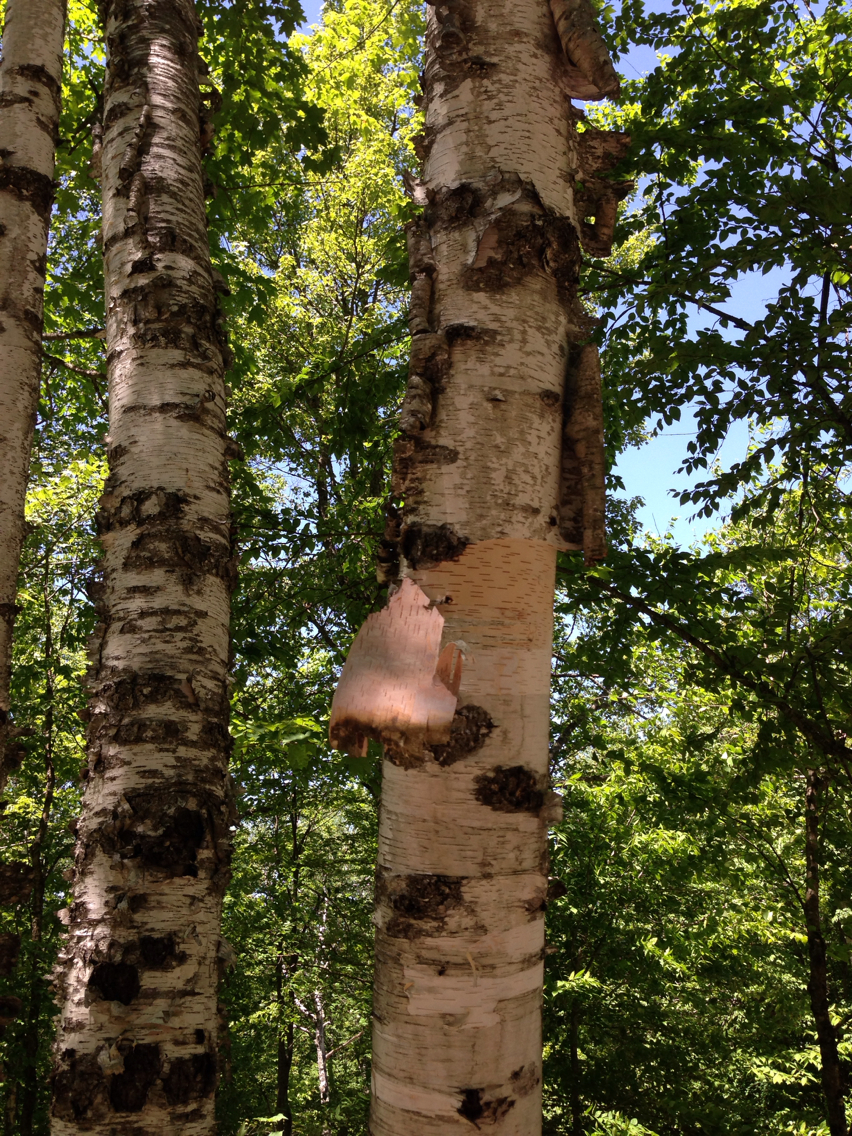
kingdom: Plantae
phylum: Tracheophyta
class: Magnoliopsida
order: Fagales
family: Betulaceae
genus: Betula
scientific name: Betula papyrifera
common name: Paper birch
